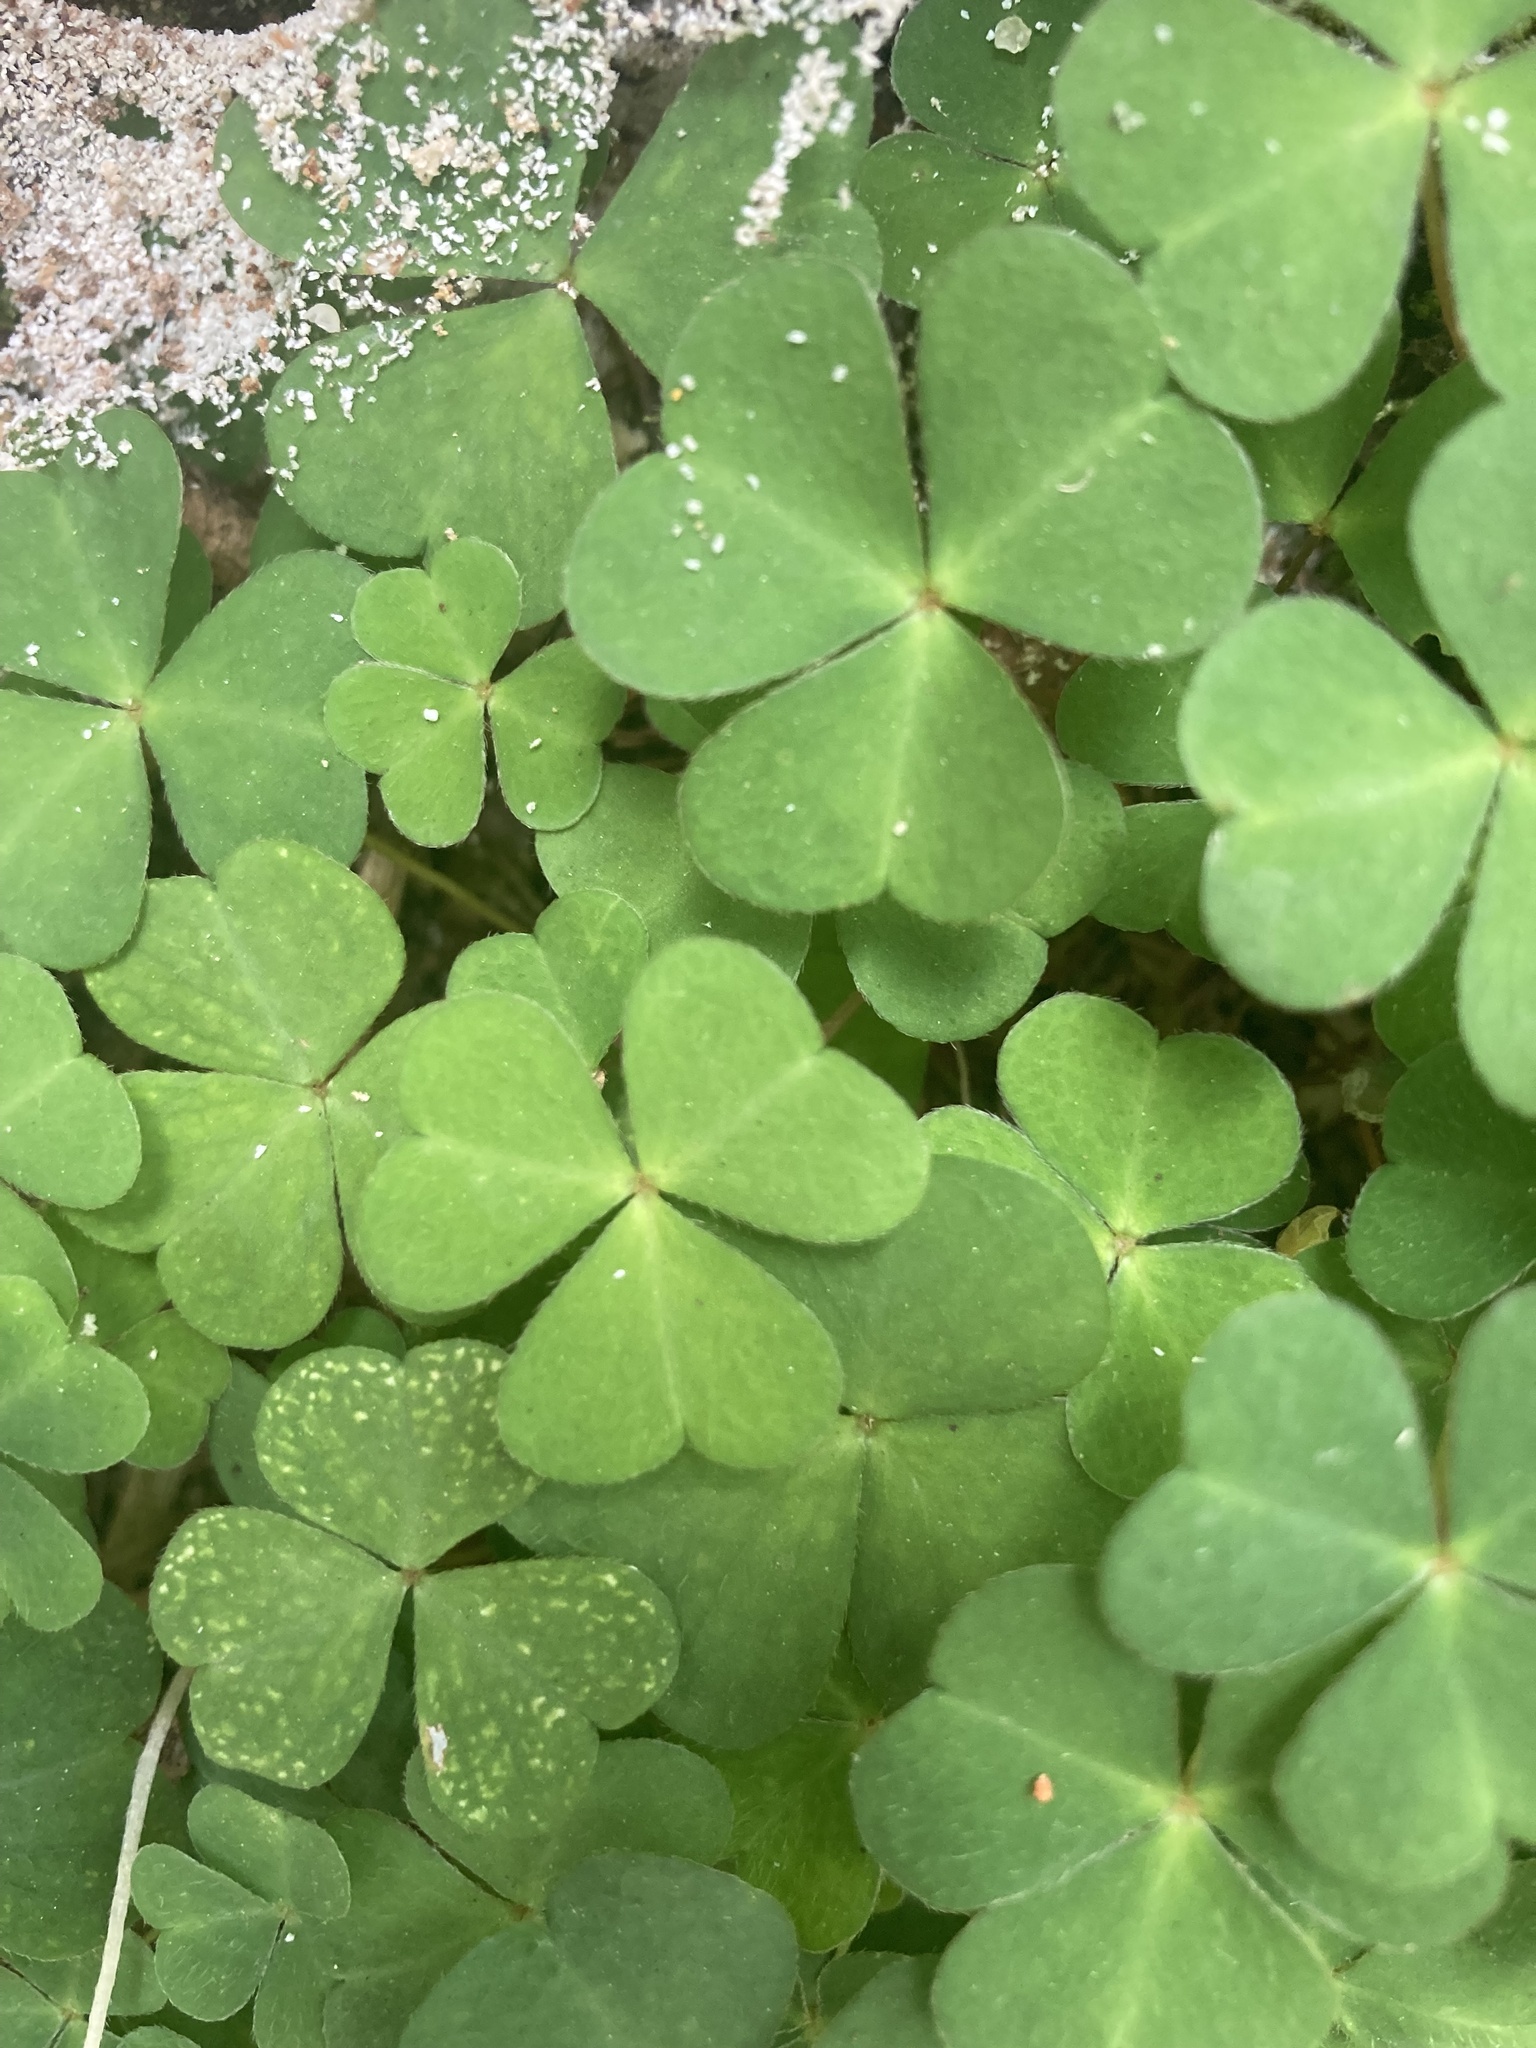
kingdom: Plantae
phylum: Tracheophyta
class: Magnoliopsida
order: Oxalidales
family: Oxalidaceae
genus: Oxalis
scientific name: Oxalis acetosella
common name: Wood-sorrel
